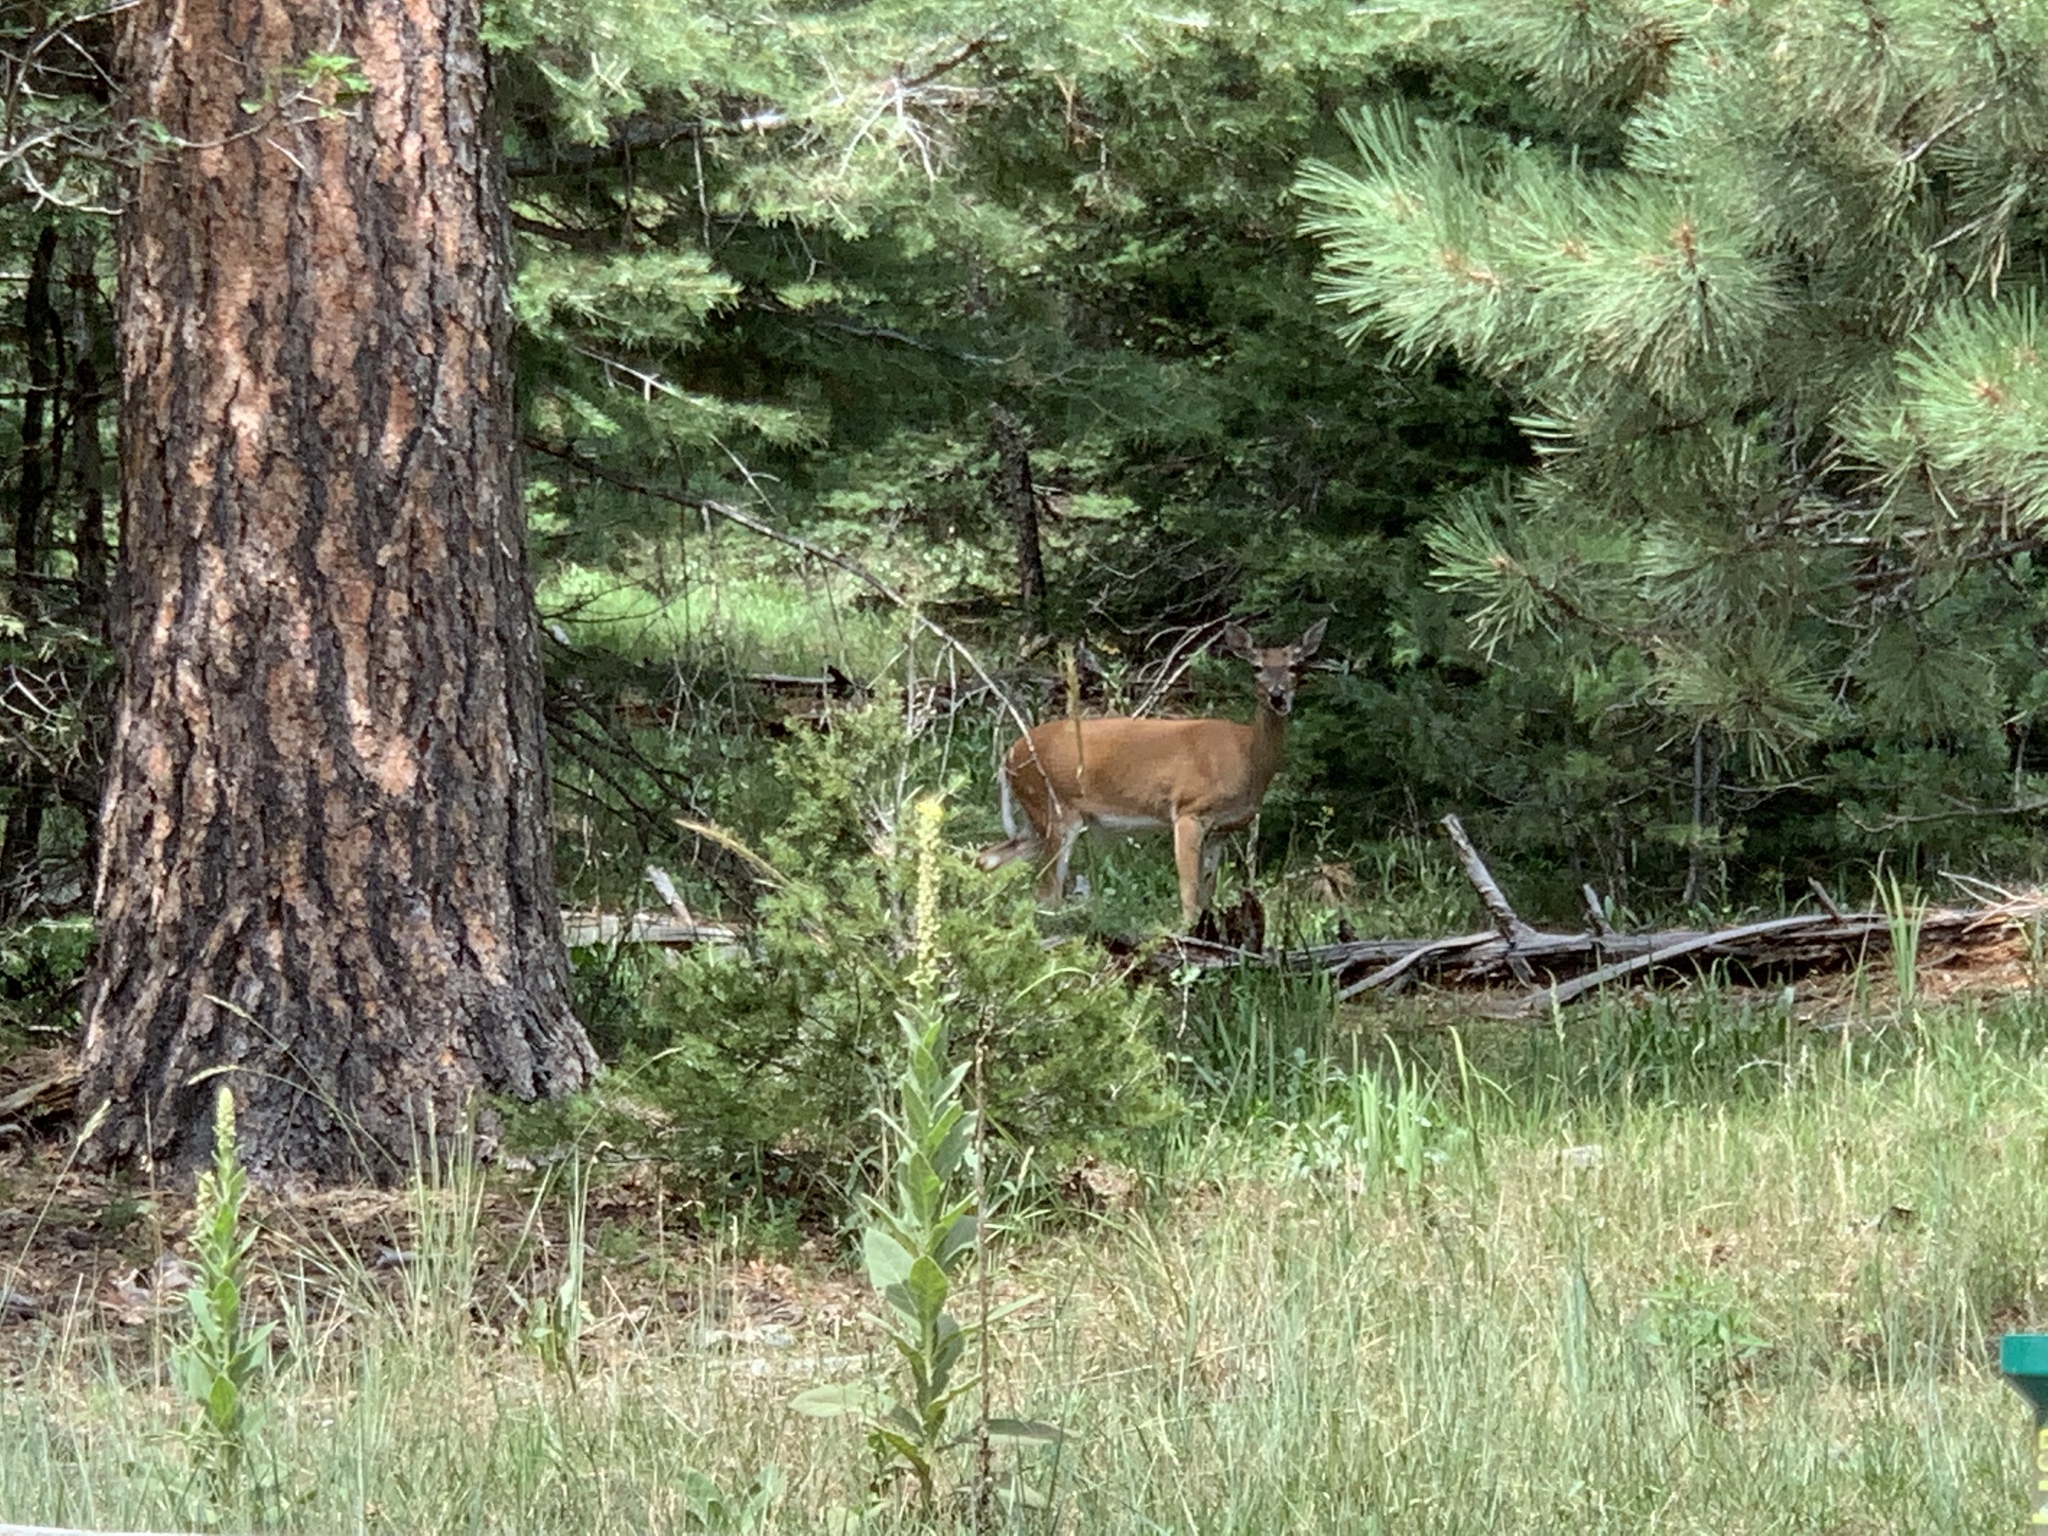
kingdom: Animalia
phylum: Chordata
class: Mammalia
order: Artiodactyla
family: Cervidae
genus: Odocoileus
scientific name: Odocoileus virginianus
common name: White-tailed deer
